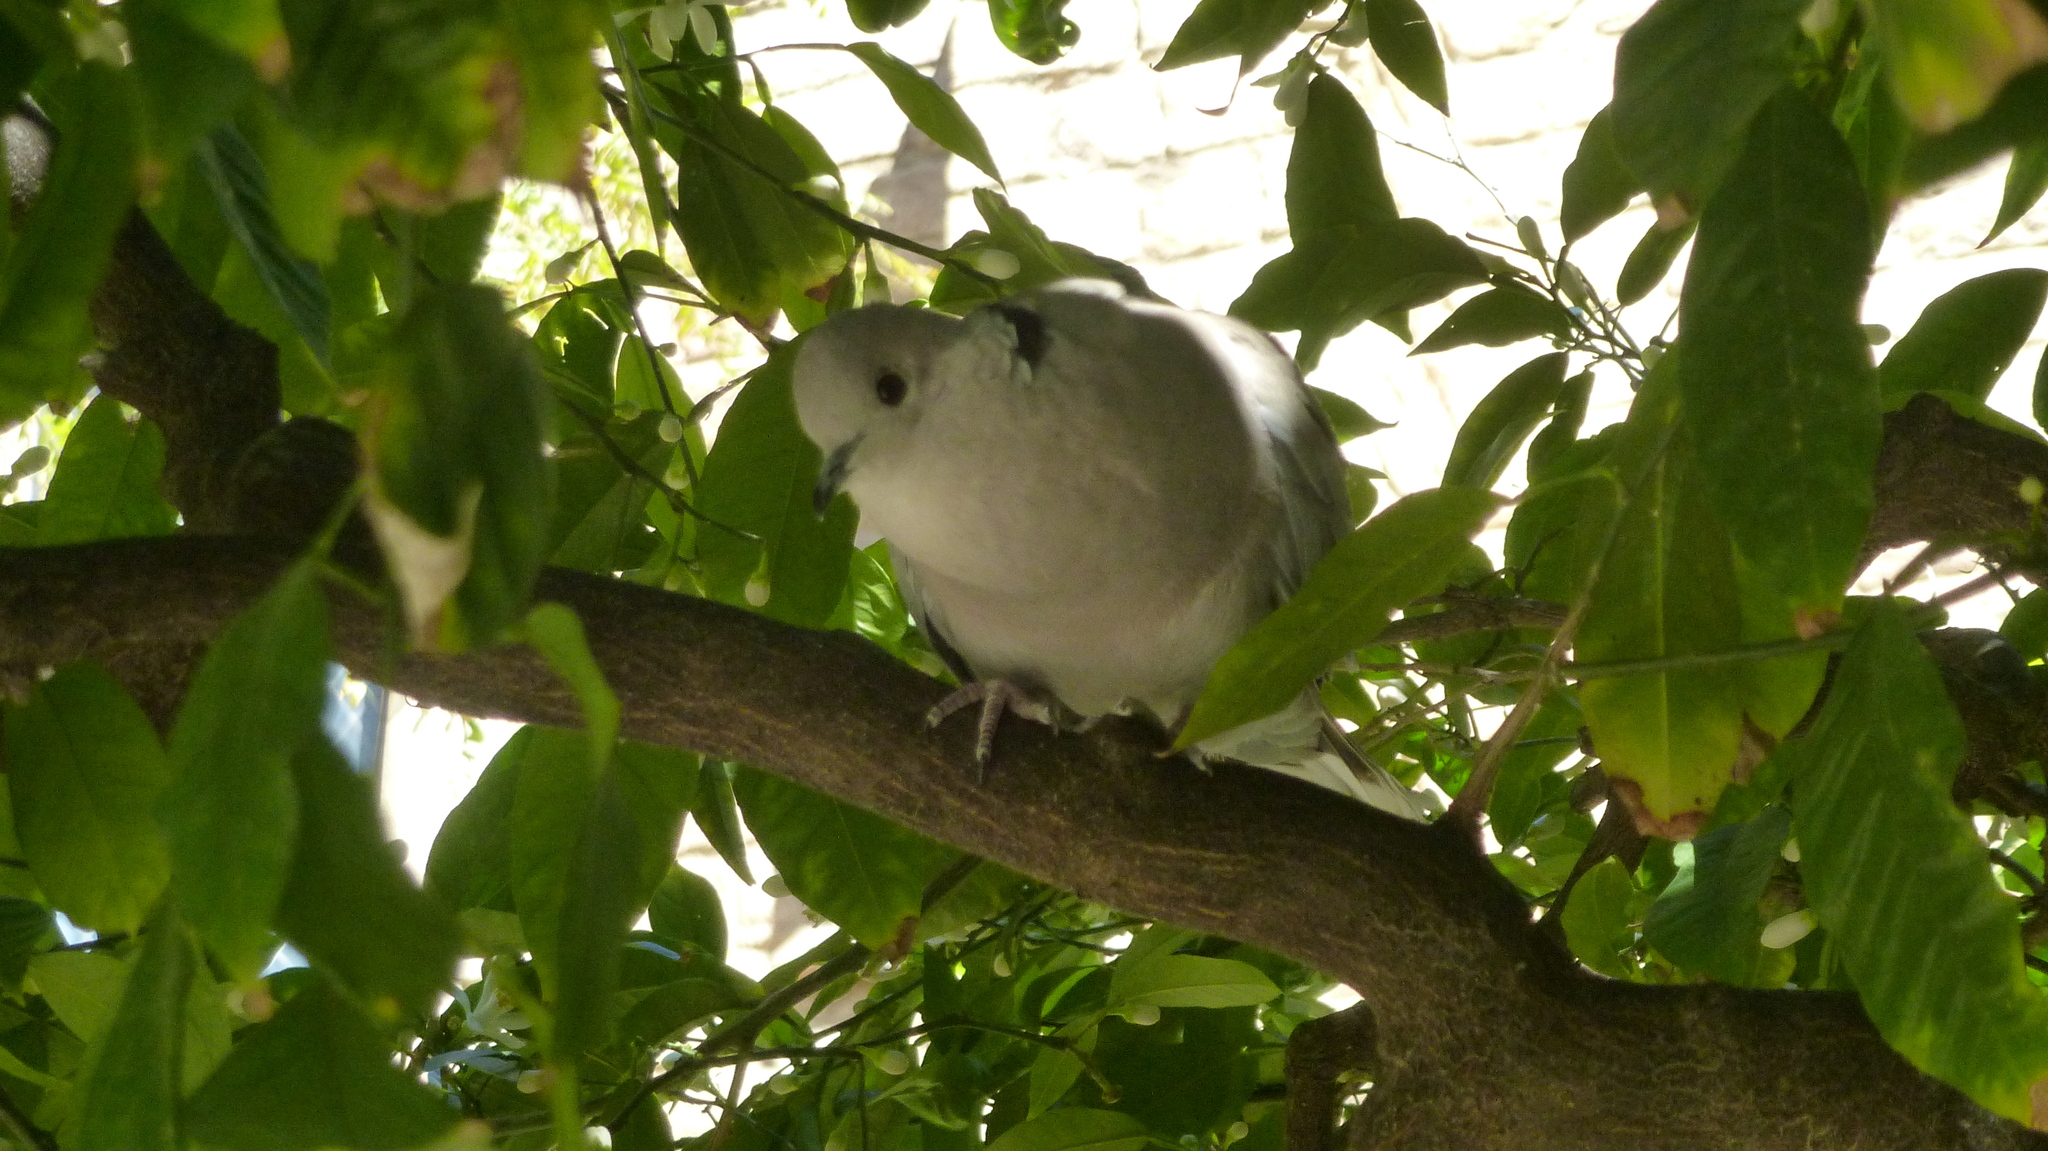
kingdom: Animalia
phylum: Chordata
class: Aves
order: Columbiformes
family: Columbidae
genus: Streptopelia
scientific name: Streptopelia decaocto
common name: Eurasian collared dove
